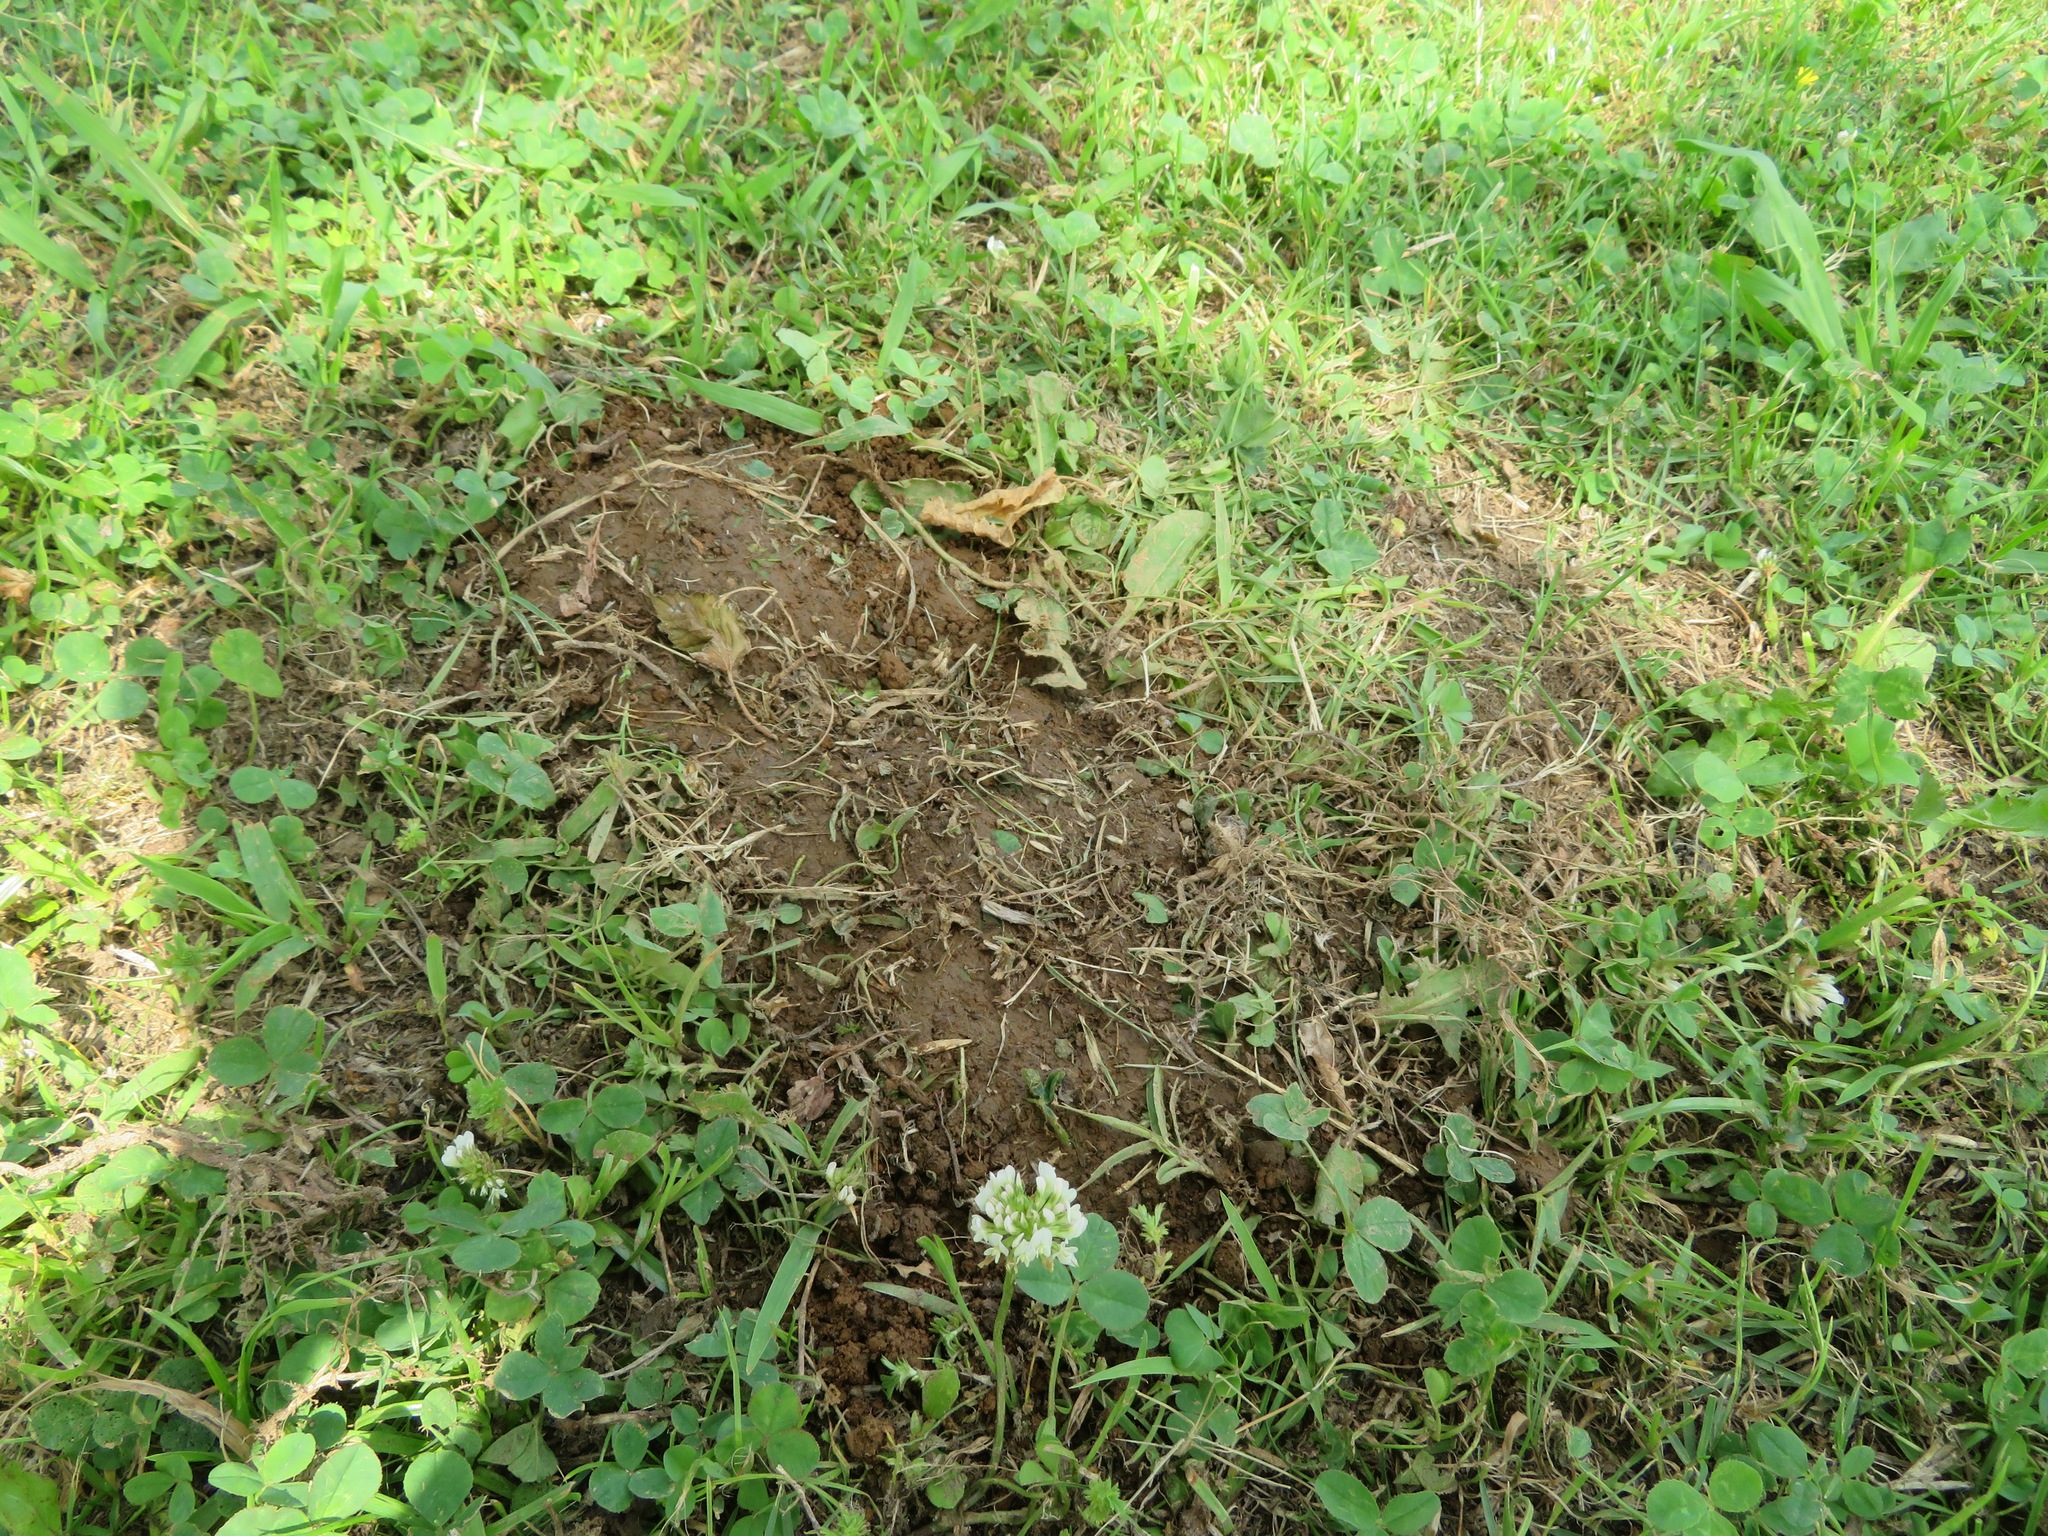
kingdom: Animalia
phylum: Chordata
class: Testudines
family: Emydidae
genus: Trachemys
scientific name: Trachemys scripta
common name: Slider
